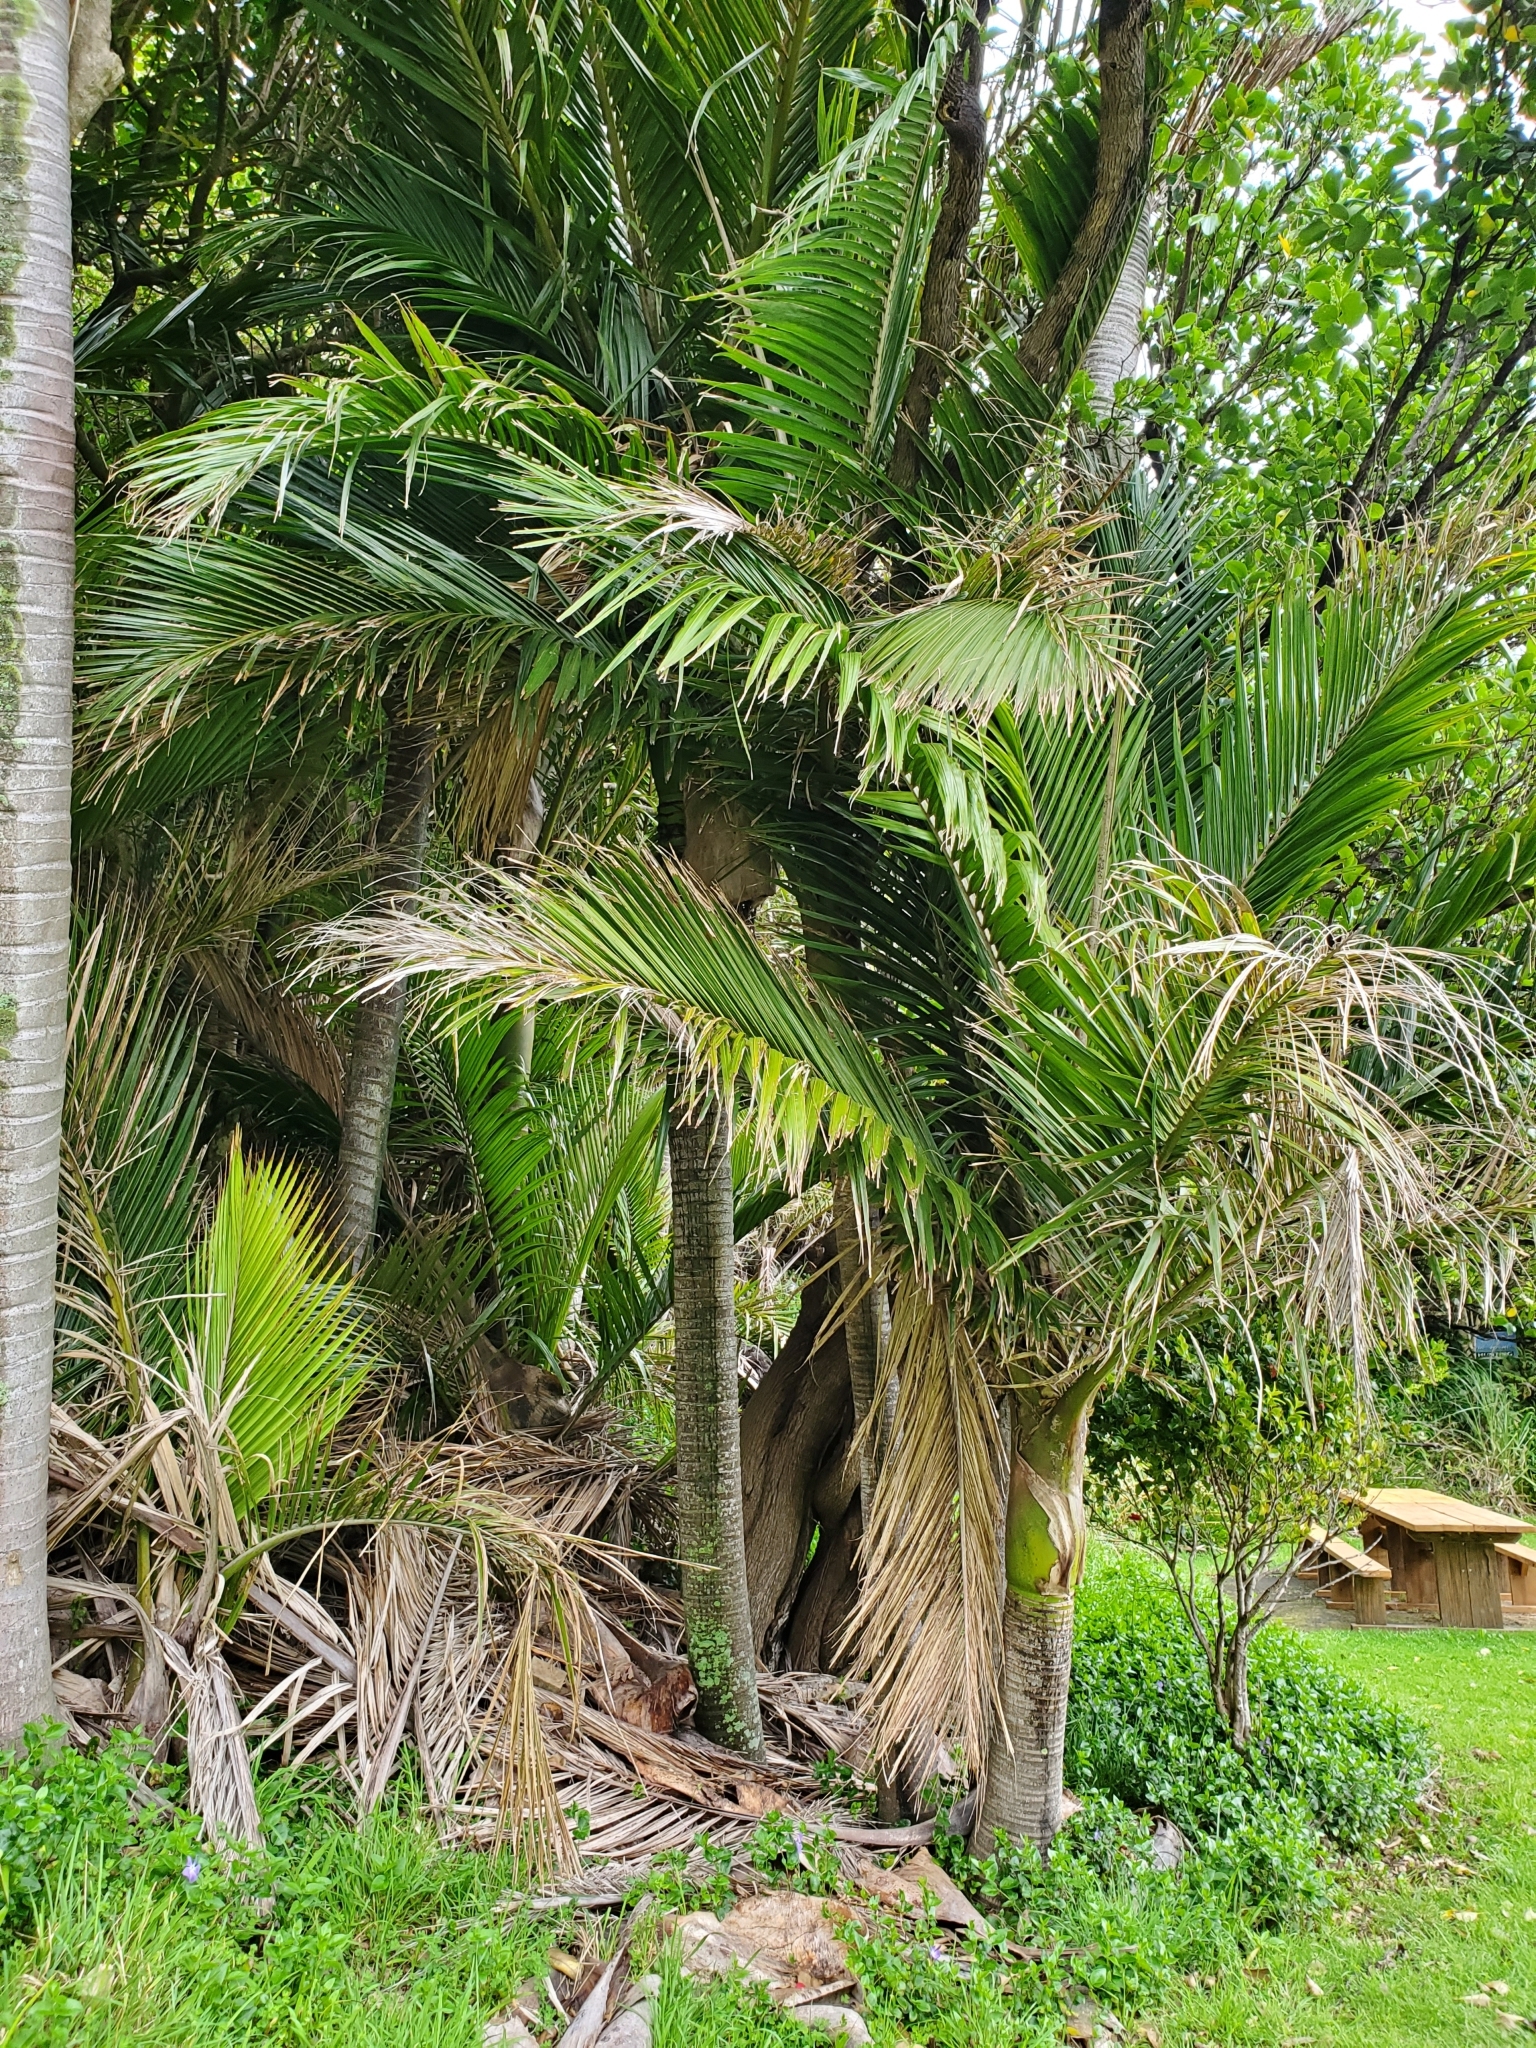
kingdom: Plantae
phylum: Tracheophyta
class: Liliopsida
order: Arecales
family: Arecaceae
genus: Rhopalostylis
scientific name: Rhopalostylis sapida
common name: Feather-duster palm
